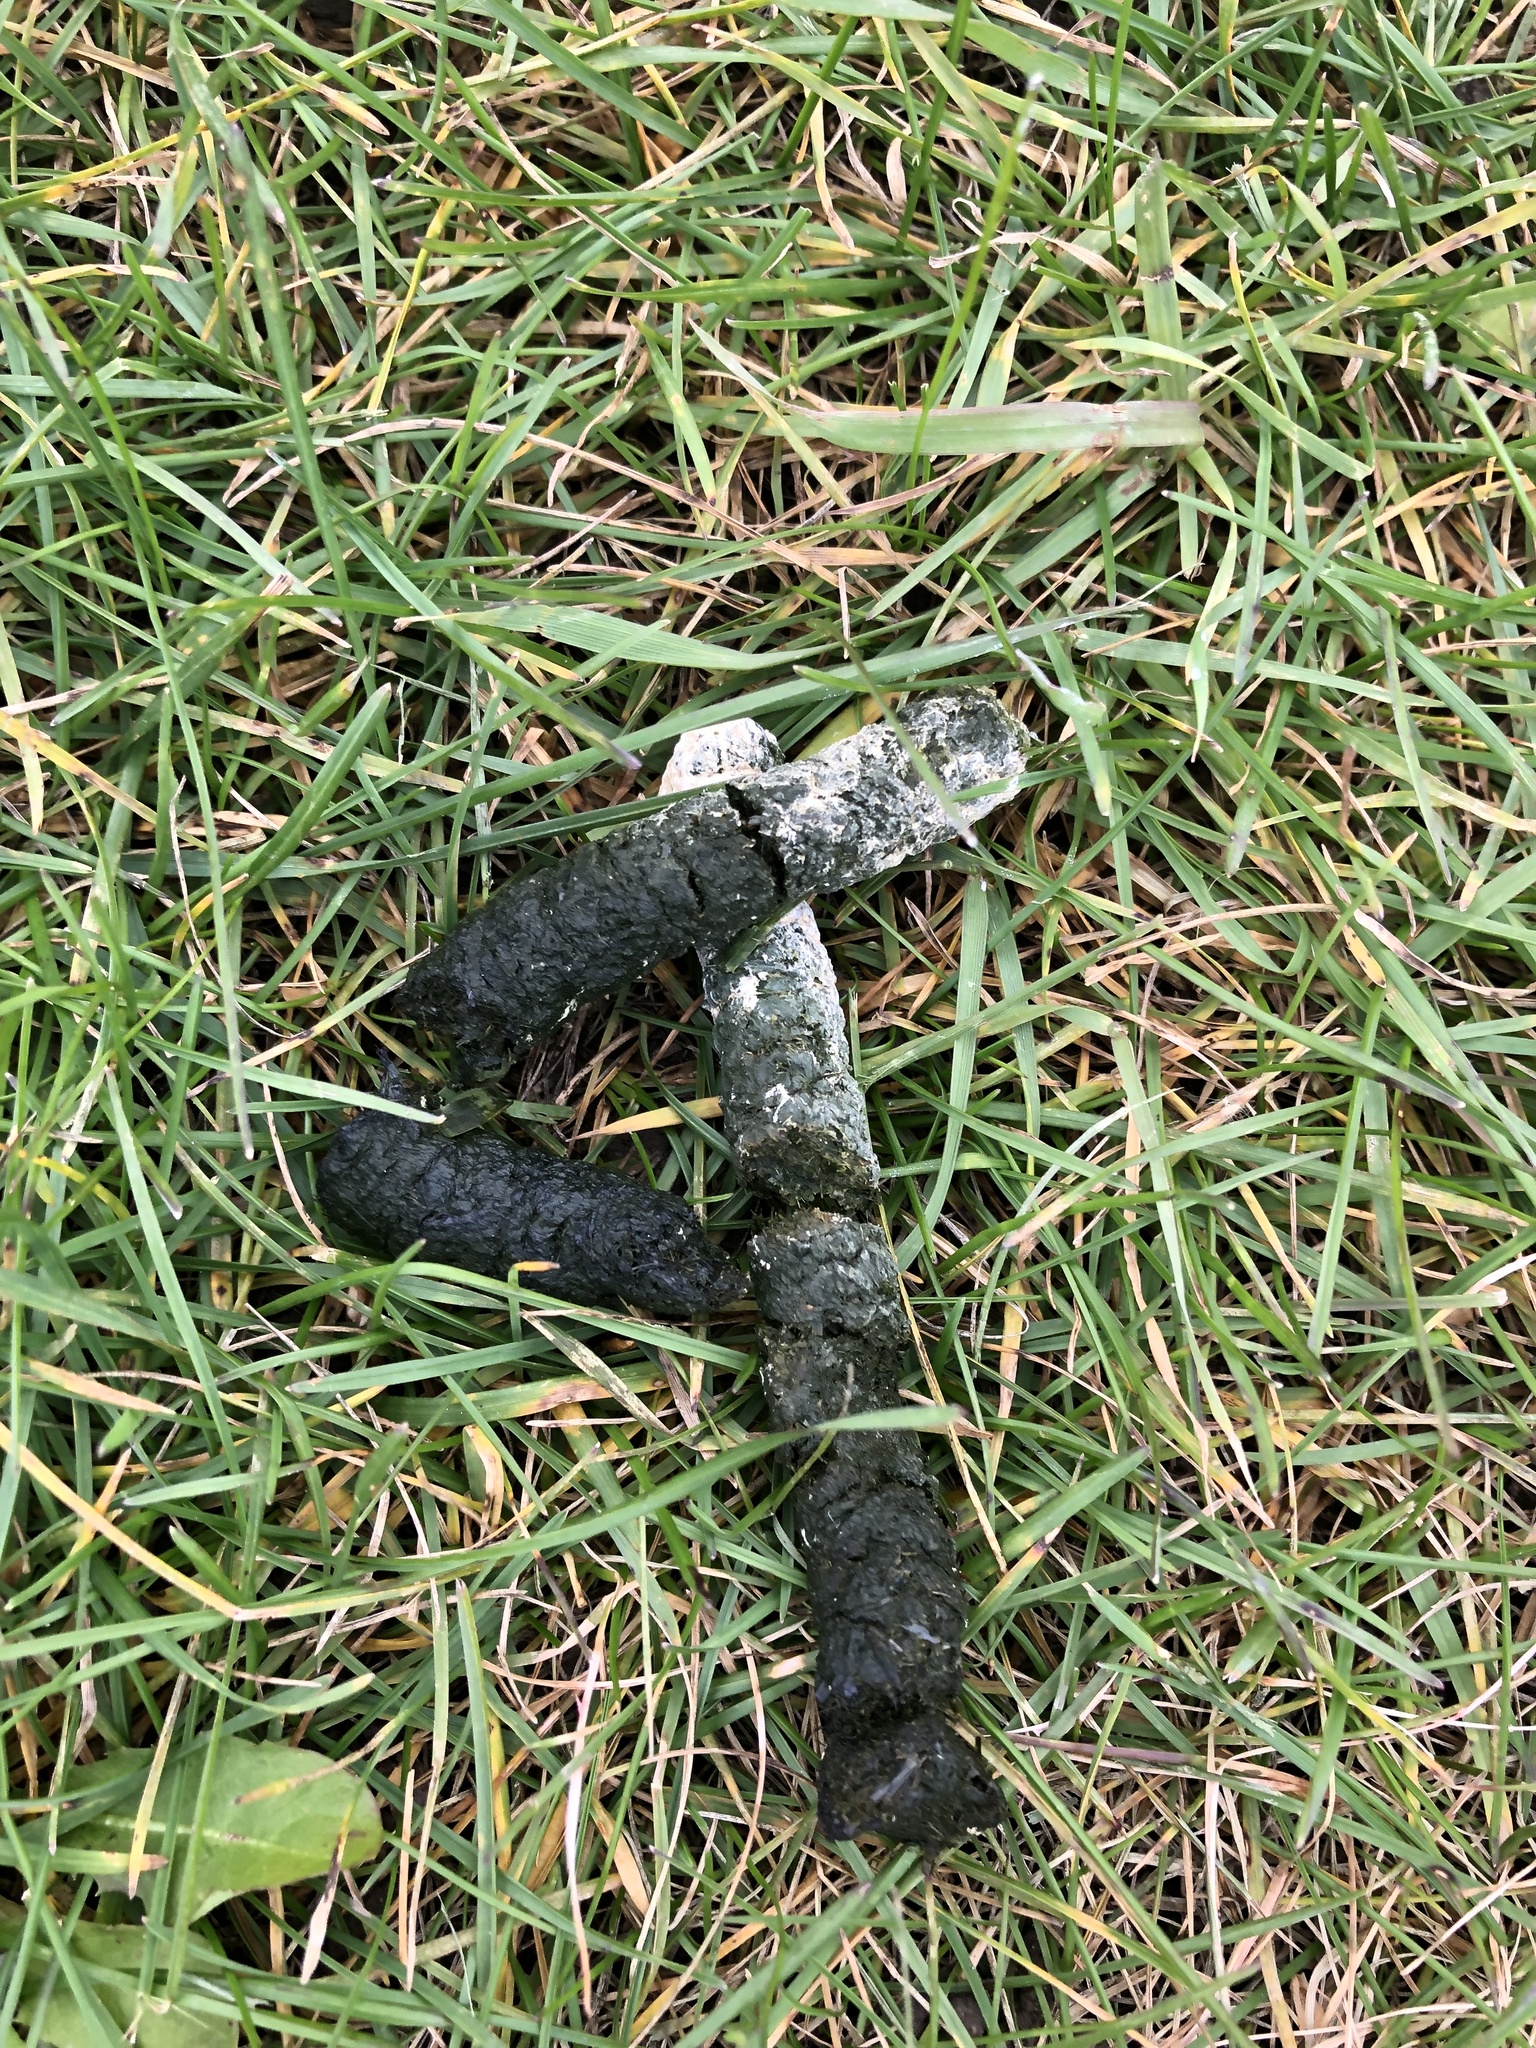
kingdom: Animalia
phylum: Chordata
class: Aves
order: Anseriformes
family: Anatidae
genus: Branta
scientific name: Branta canadensis
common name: Canada goose
